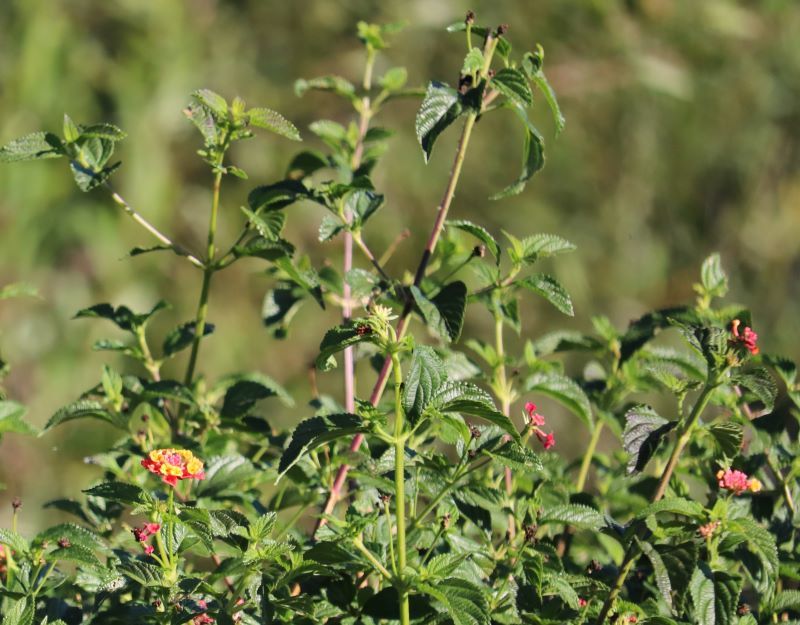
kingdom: Plantae
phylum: Tracheophyta
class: Magnoliopsida
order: Lamiales
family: Verbenaceae
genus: Lantana
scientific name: Lantana camara
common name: Lantana
